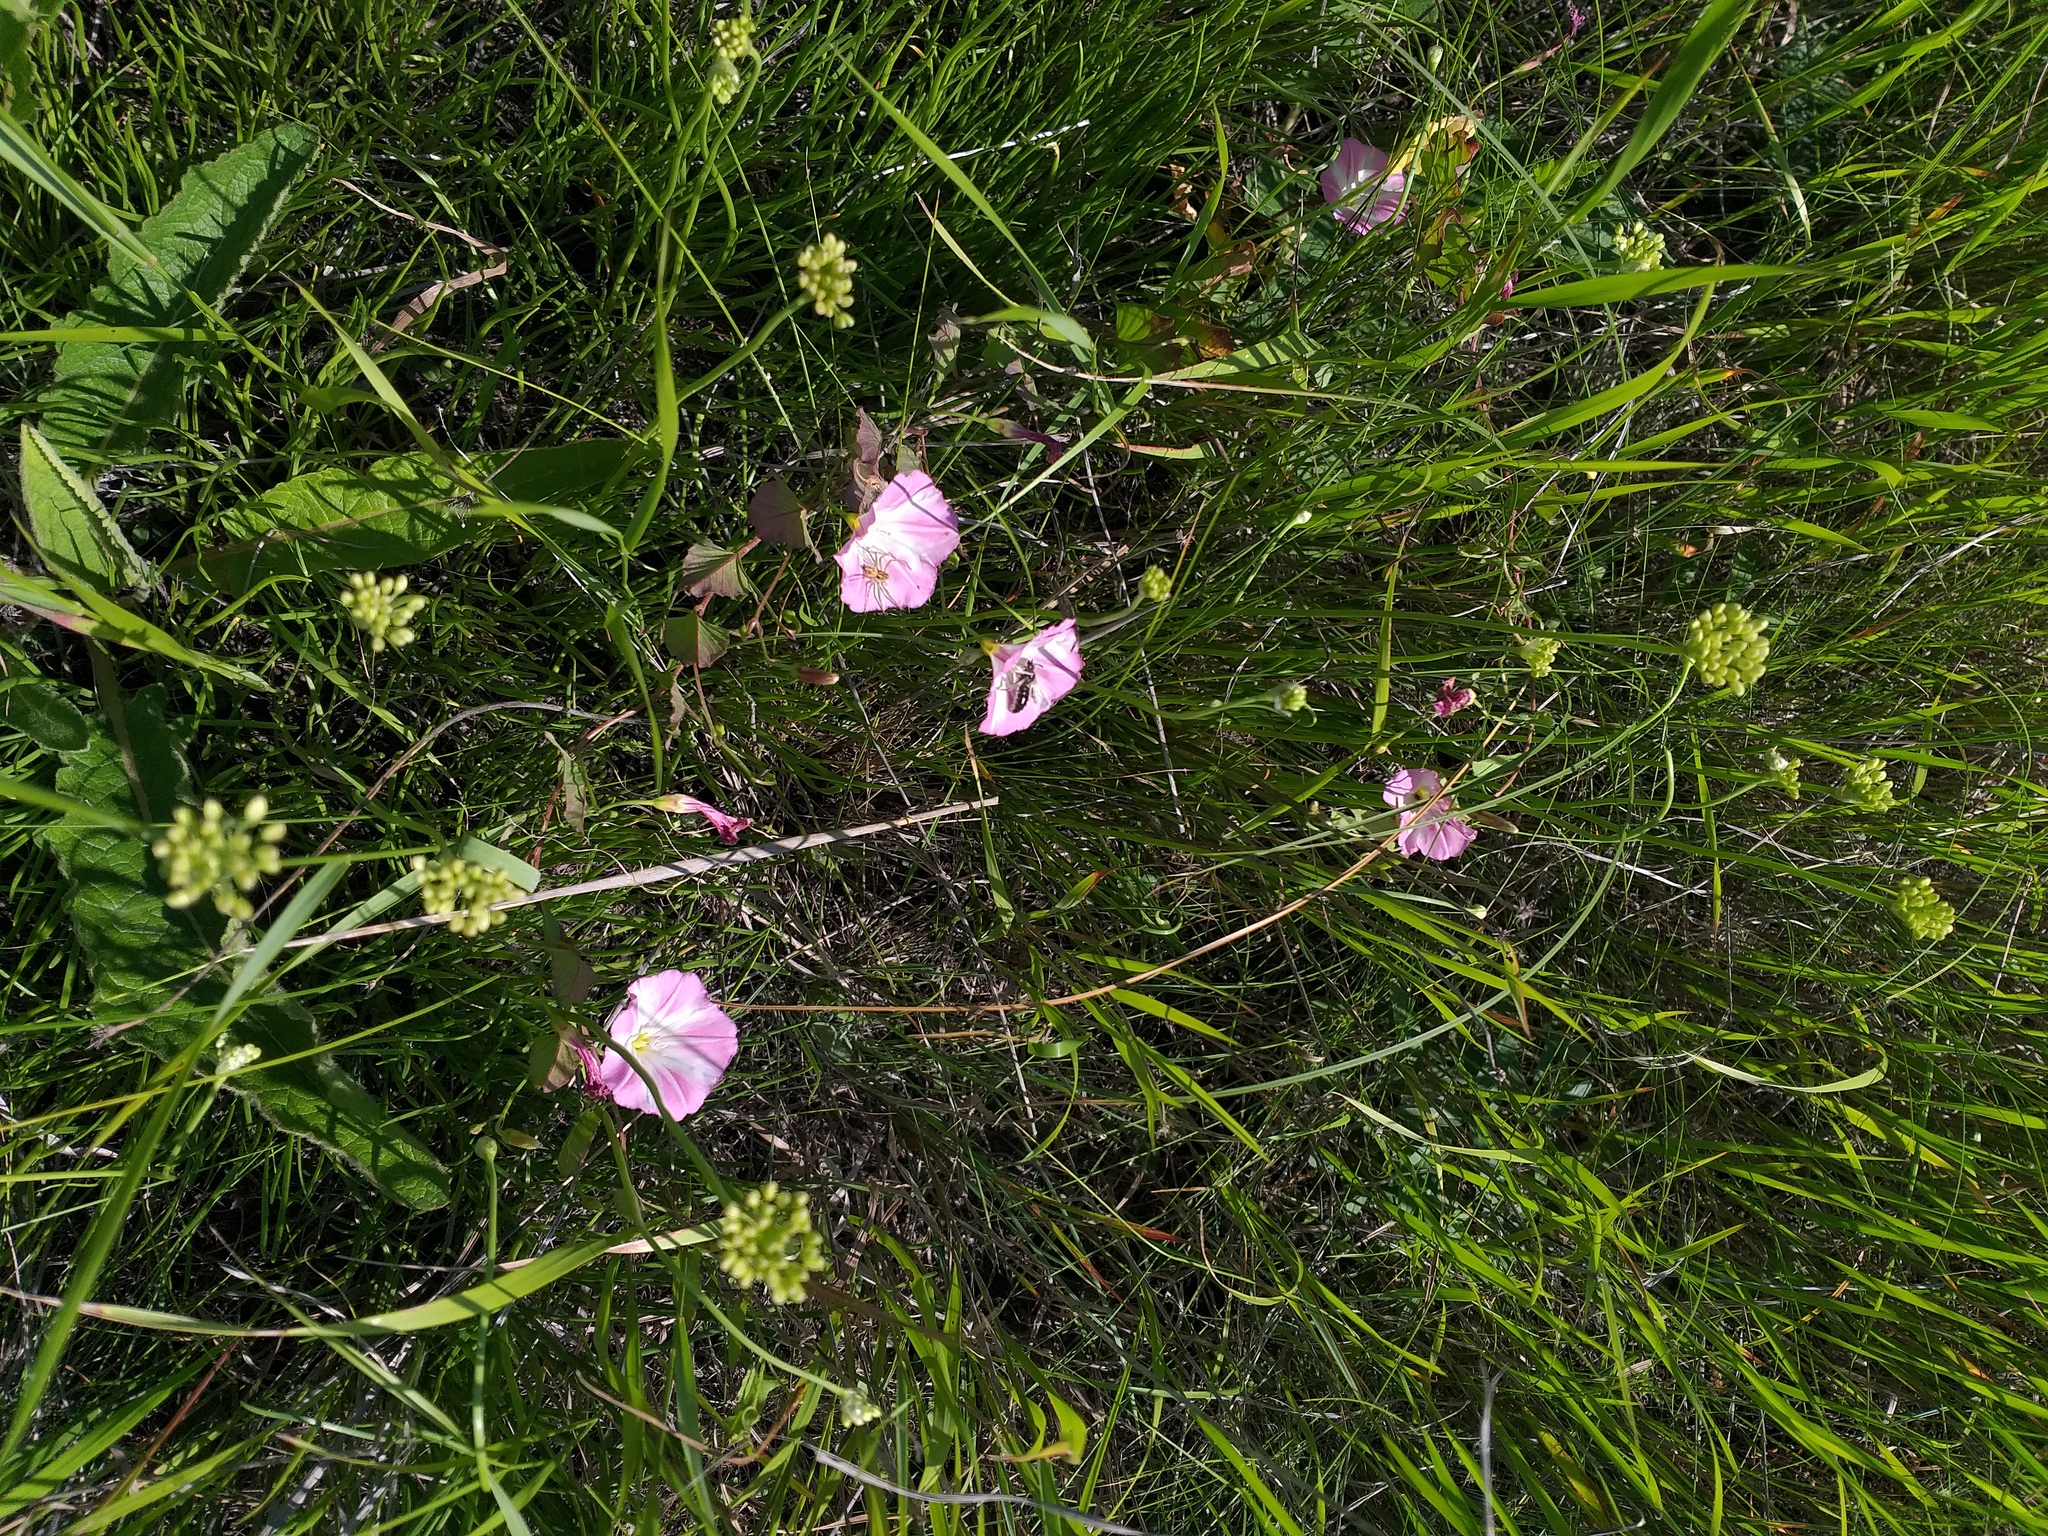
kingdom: Plantae
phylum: Tracheophyta
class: Magnoliopsida
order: Solanales
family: Convolvulaceae
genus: Convolvulus
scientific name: Convolvulus arvensis
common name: Field bindweed
